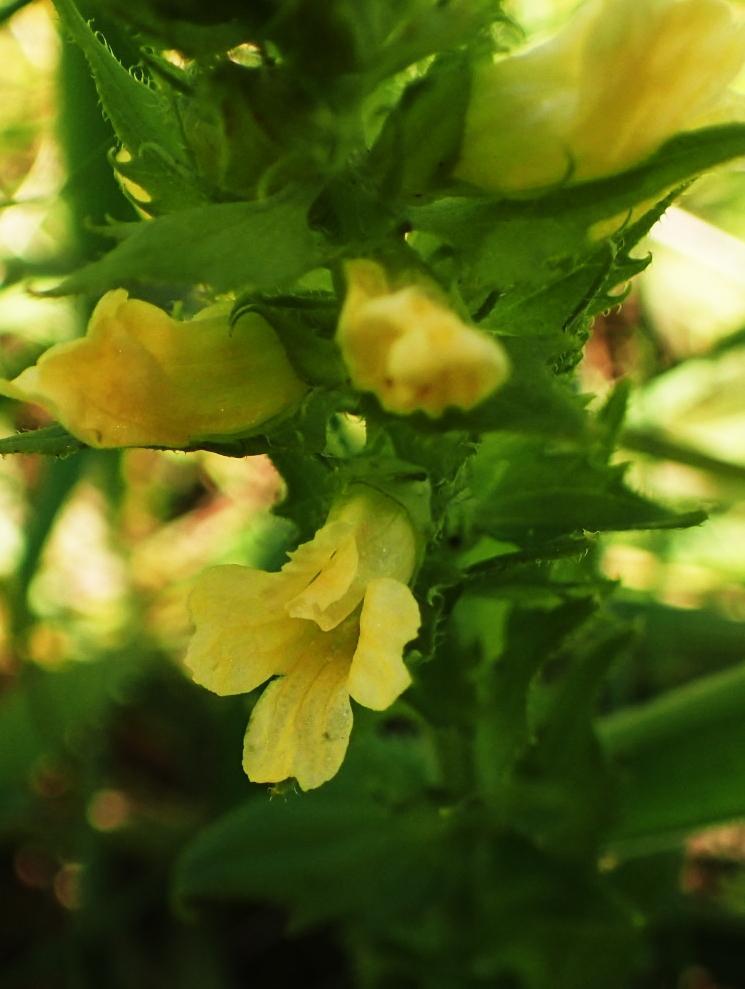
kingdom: Plantae
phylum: Tracheophyta
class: Magnoliopsida
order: Lamiales
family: Orobanchaceae
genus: Alectra
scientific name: Alectra sessiliflora
